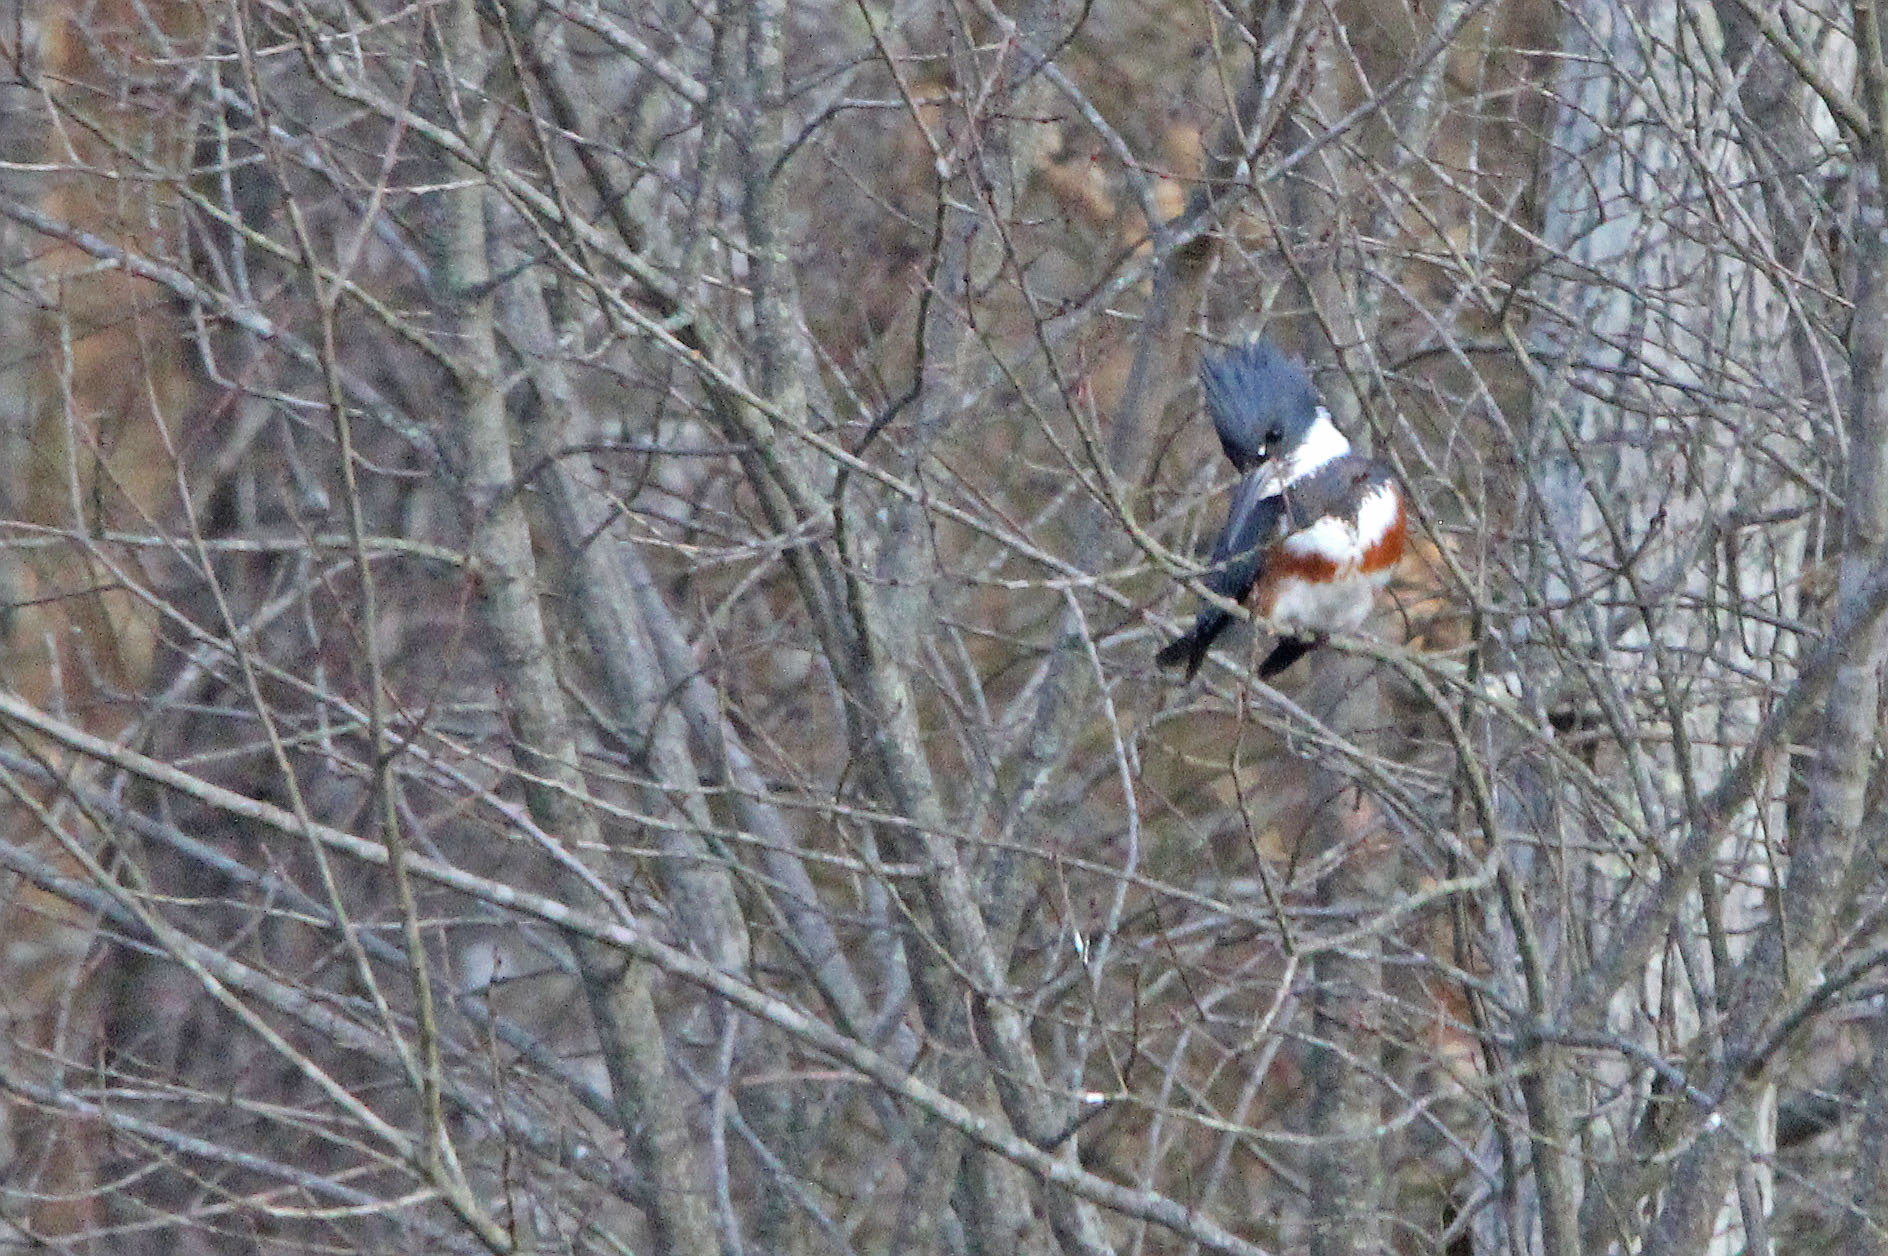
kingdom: Animalia
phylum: Chordata
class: Aves
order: Coraciiformes
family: Alcedinidae
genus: Megaceryle
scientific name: Megaceryle alcyon
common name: Belted kingfisher
